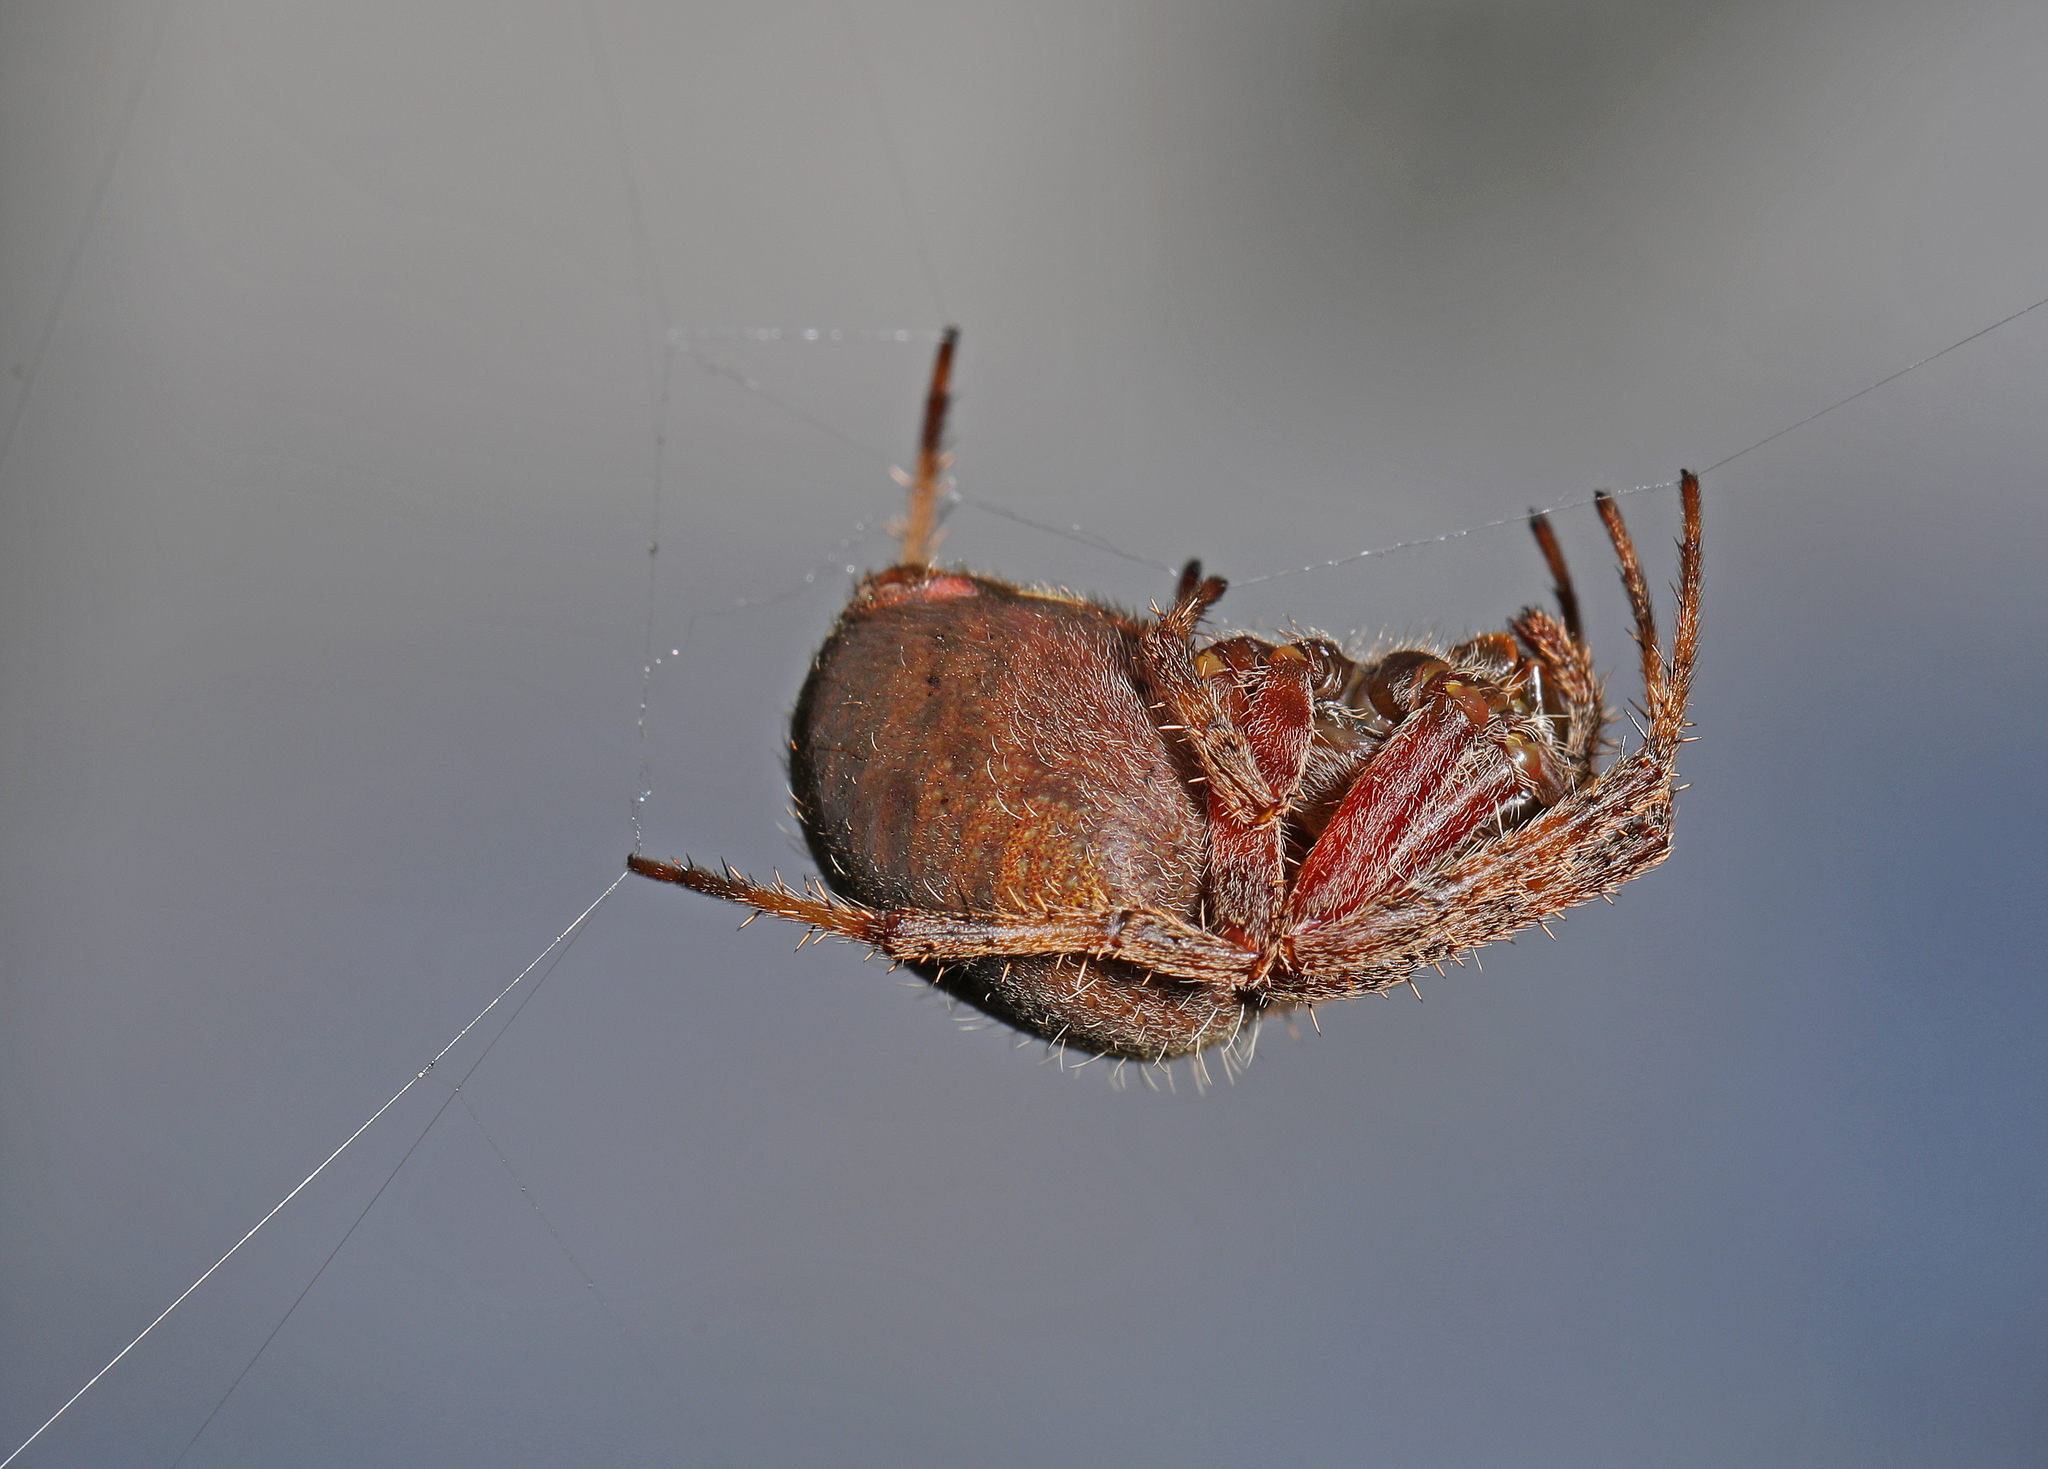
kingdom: Animalia
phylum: Arthropoda
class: Arachnida
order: Araneae
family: Araneidae
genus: Neoscona
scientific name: Neoscona crucifera
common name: Spotted orbweaver
